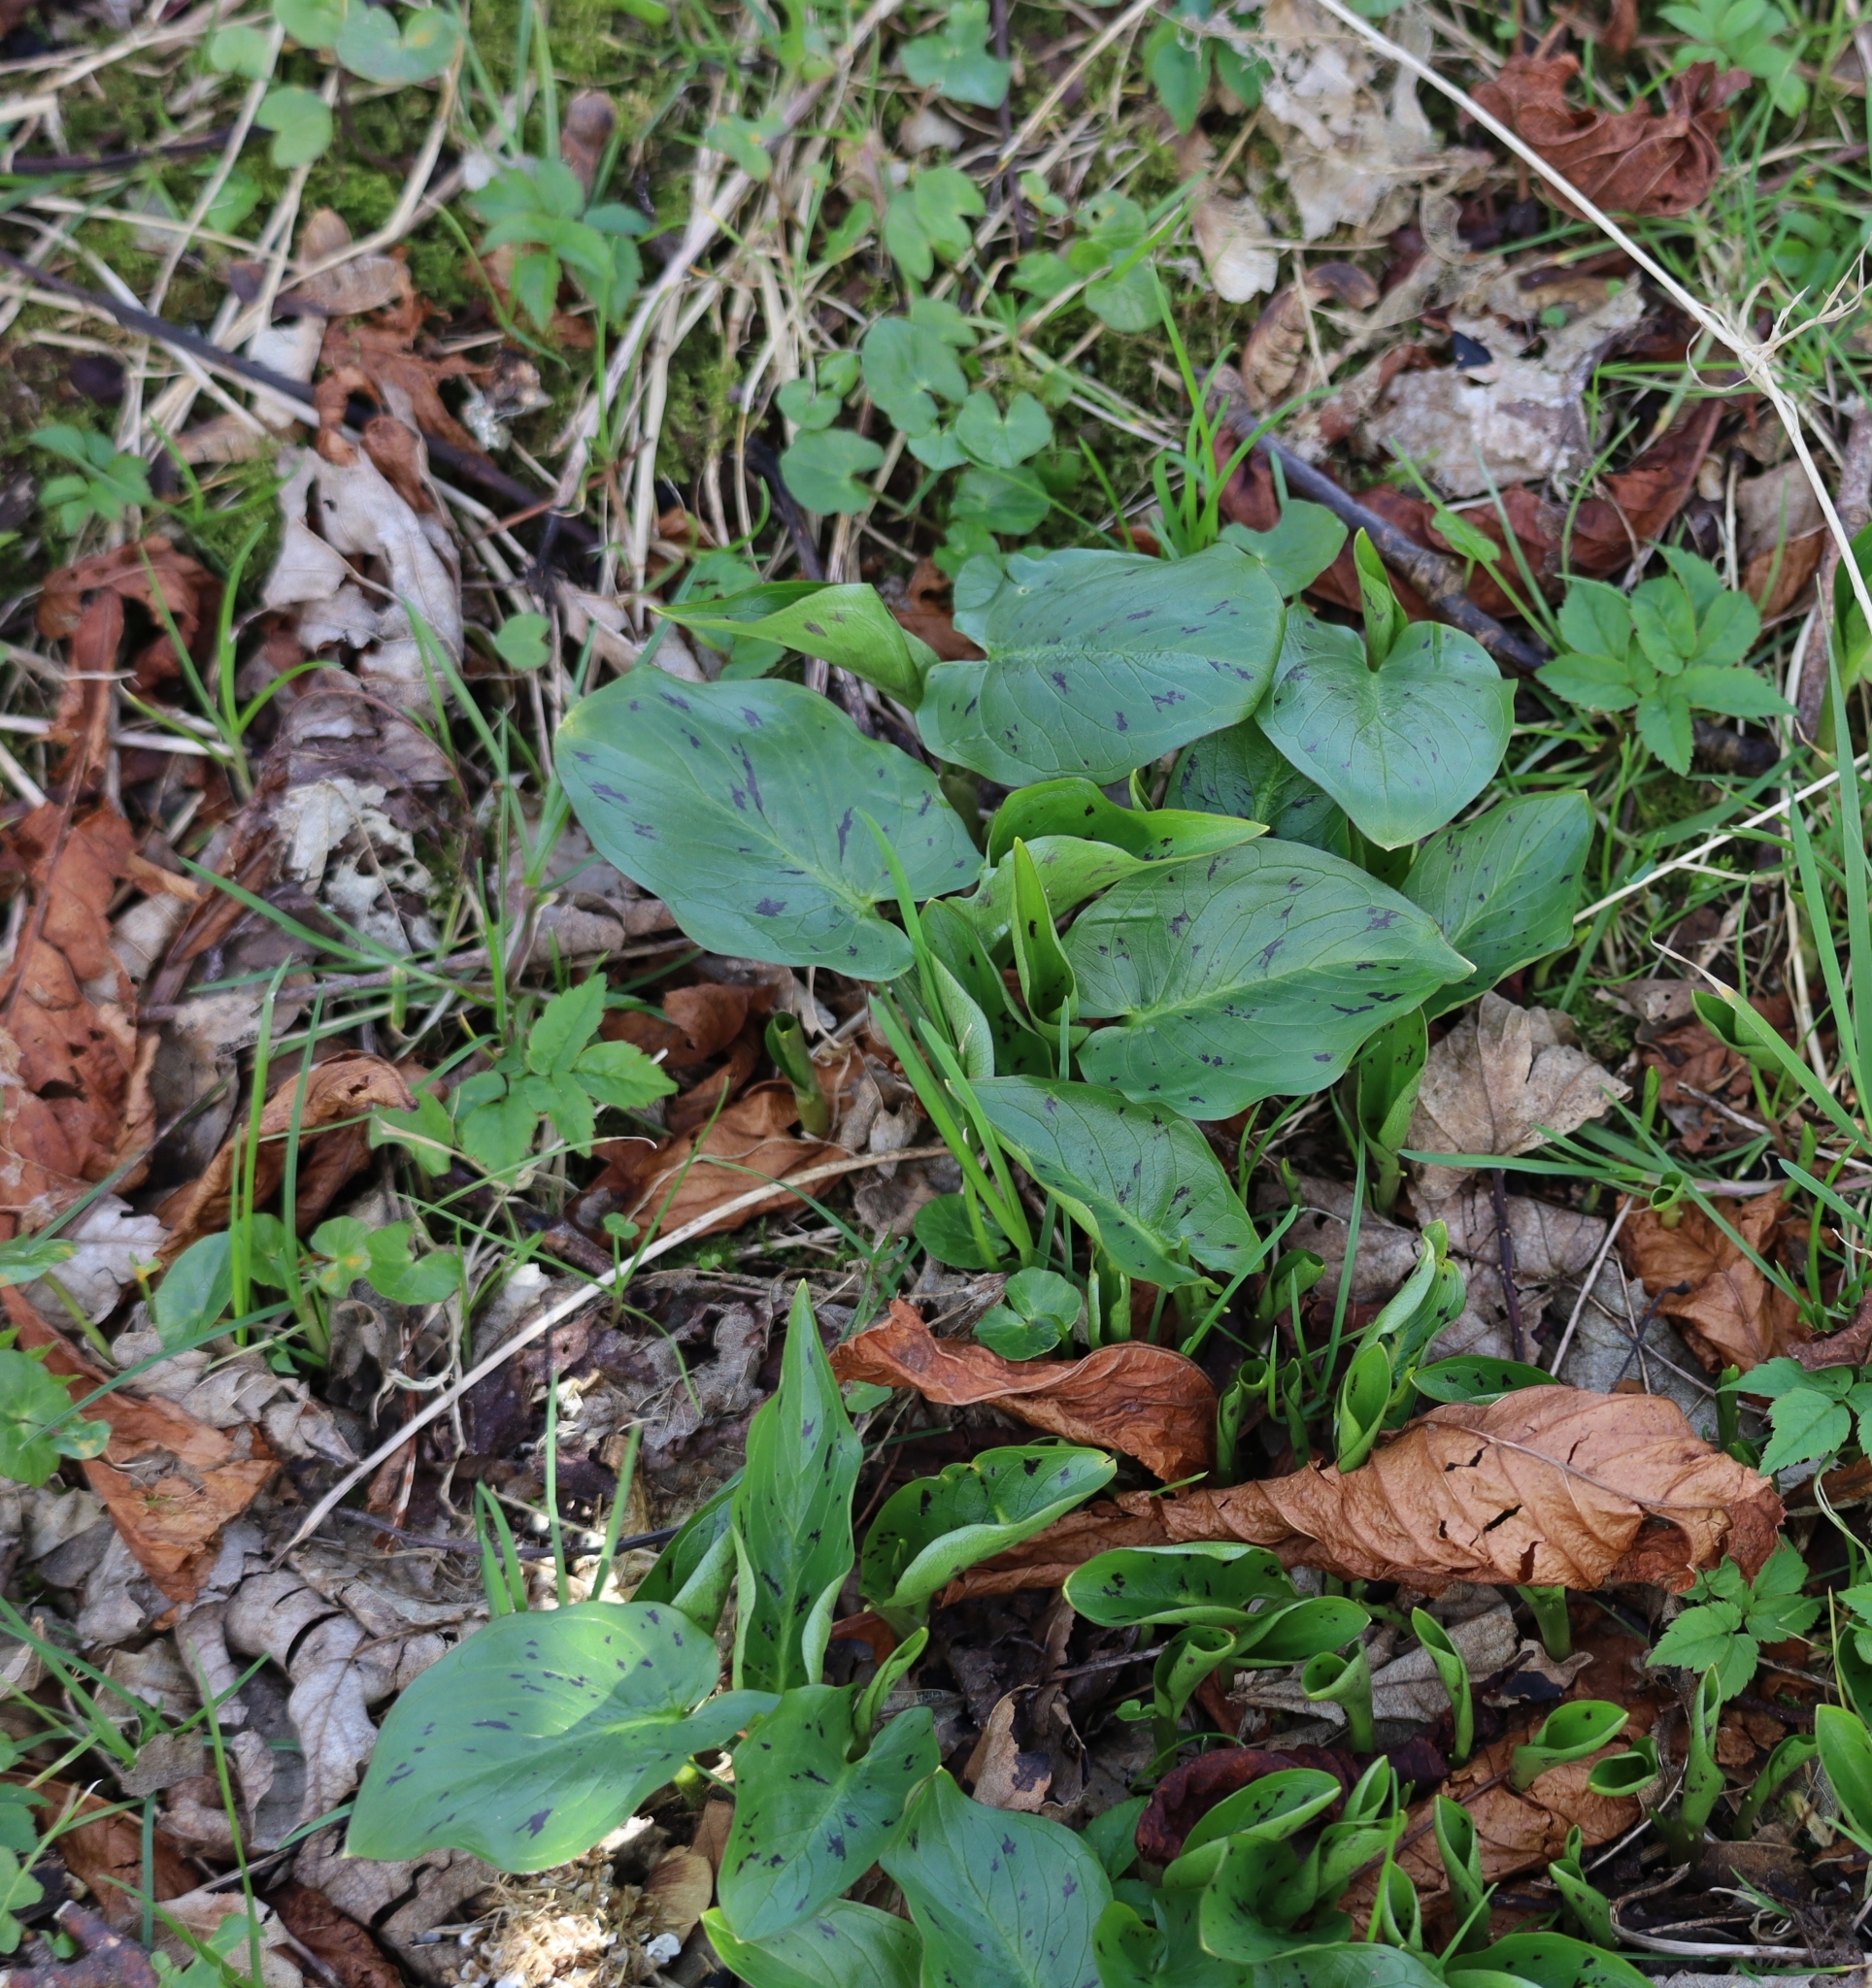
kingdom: Plantae
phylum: Tracheophyta
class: Liliopsida
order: Alismatales
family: Araceae
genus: Arum
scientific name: Arum maculatum
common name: Lords-and-ladies
